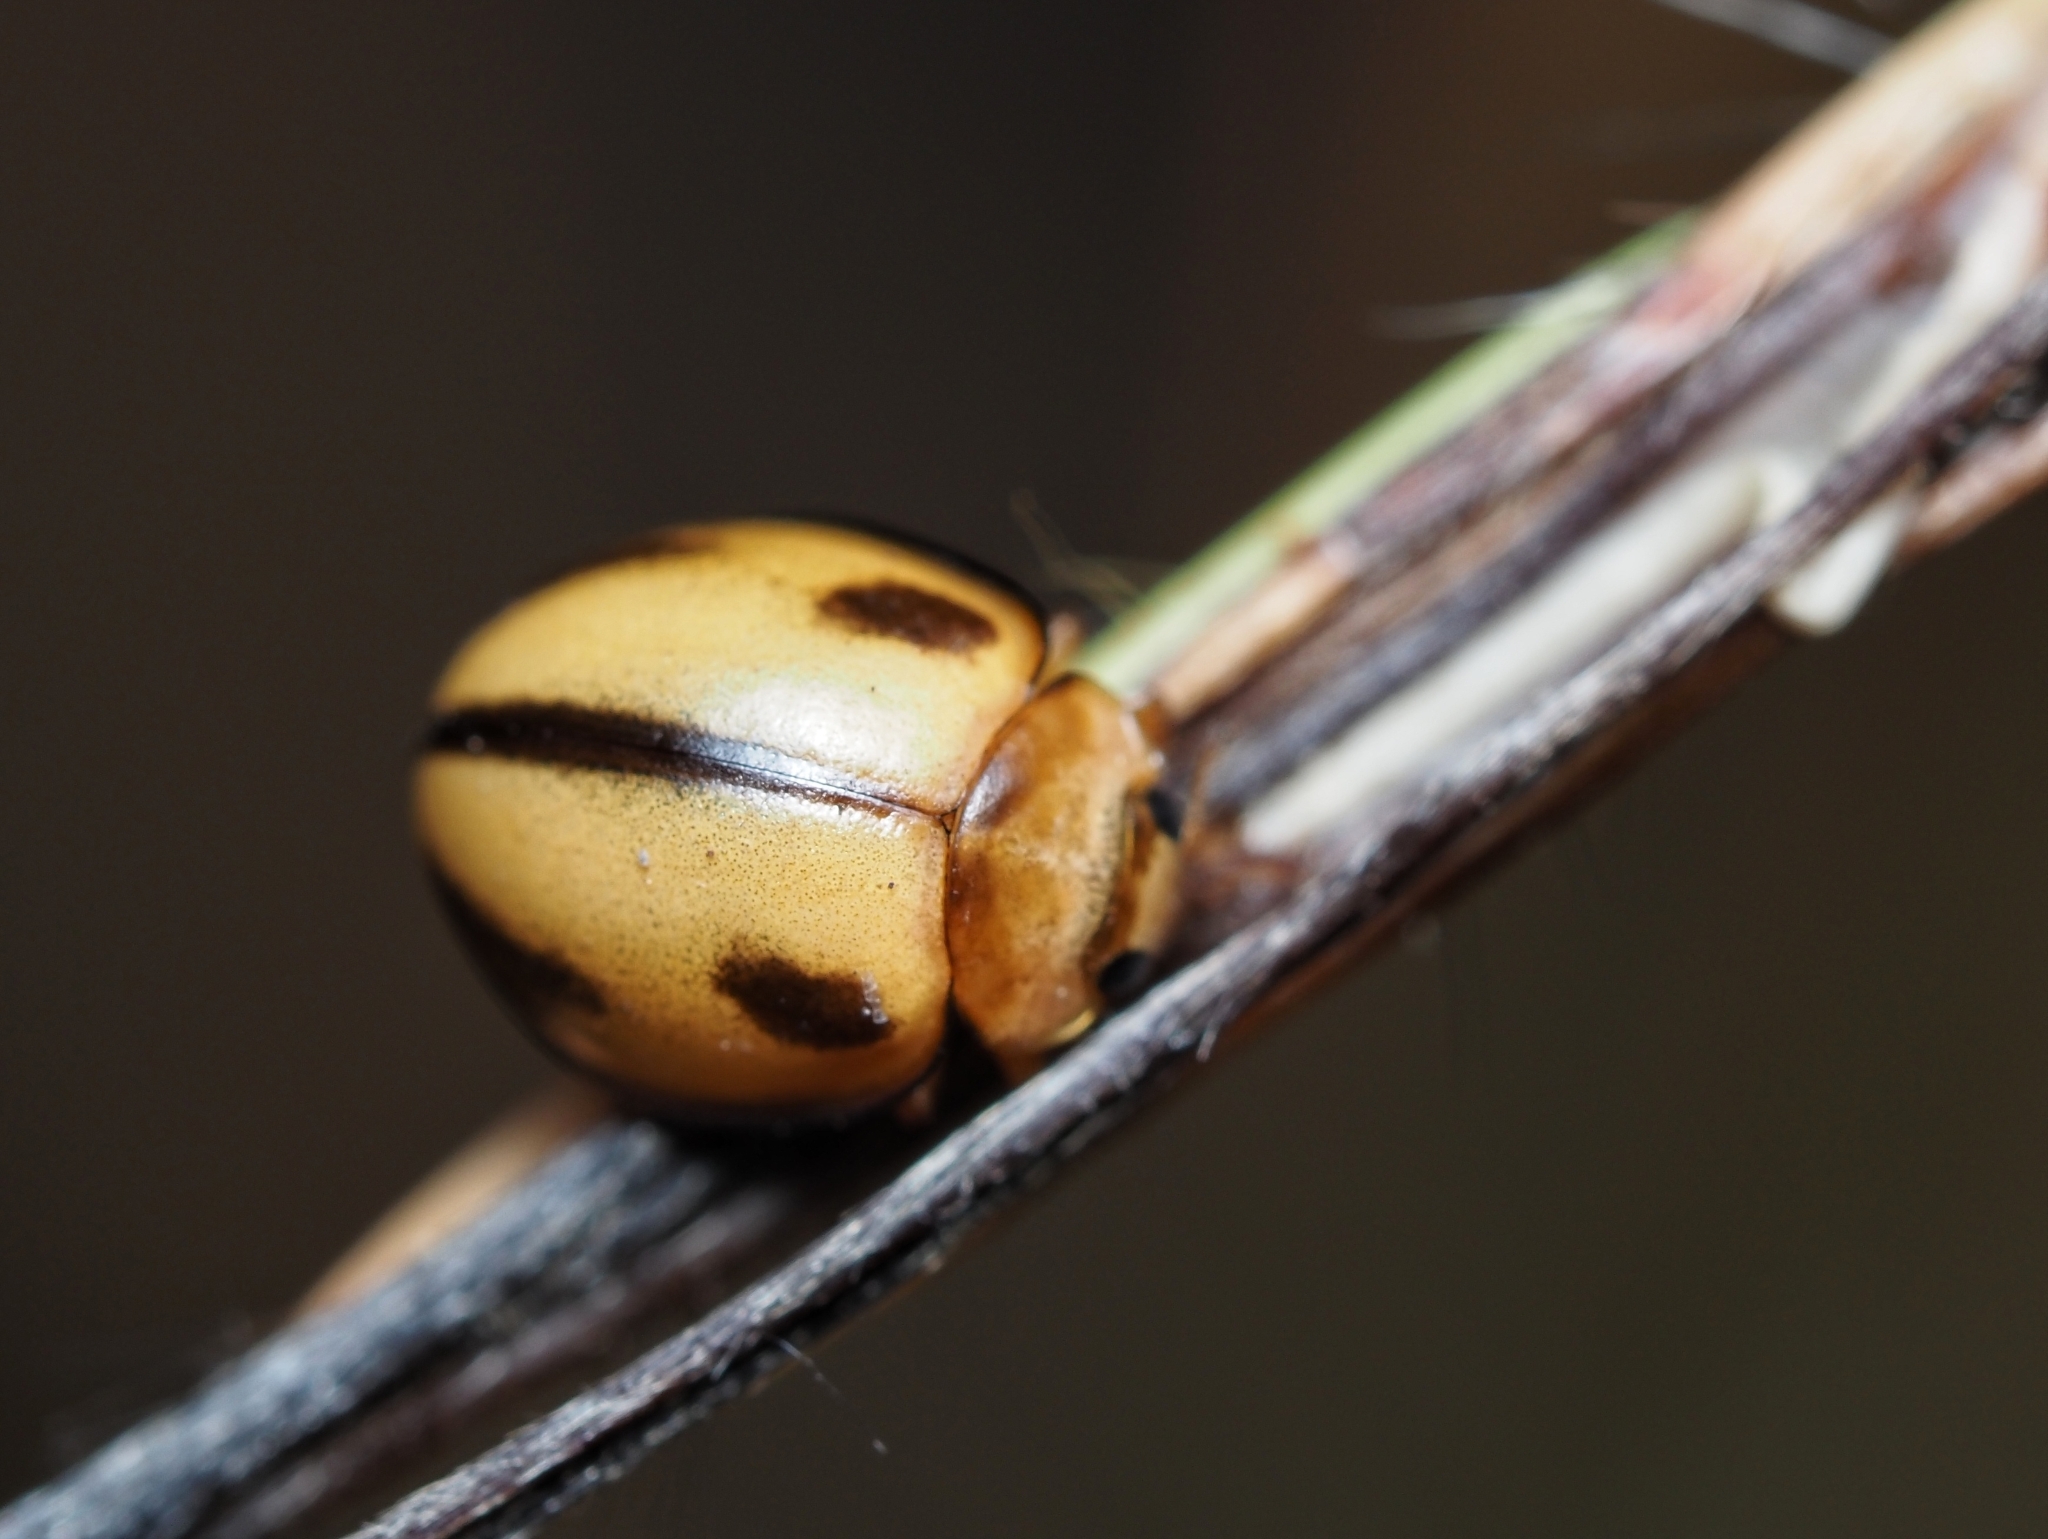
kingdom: Animalia
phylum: Arthropoda
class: Insecta
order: Coleoptera
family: Coccinellidae
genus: Micraspis
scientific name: Micraspis
